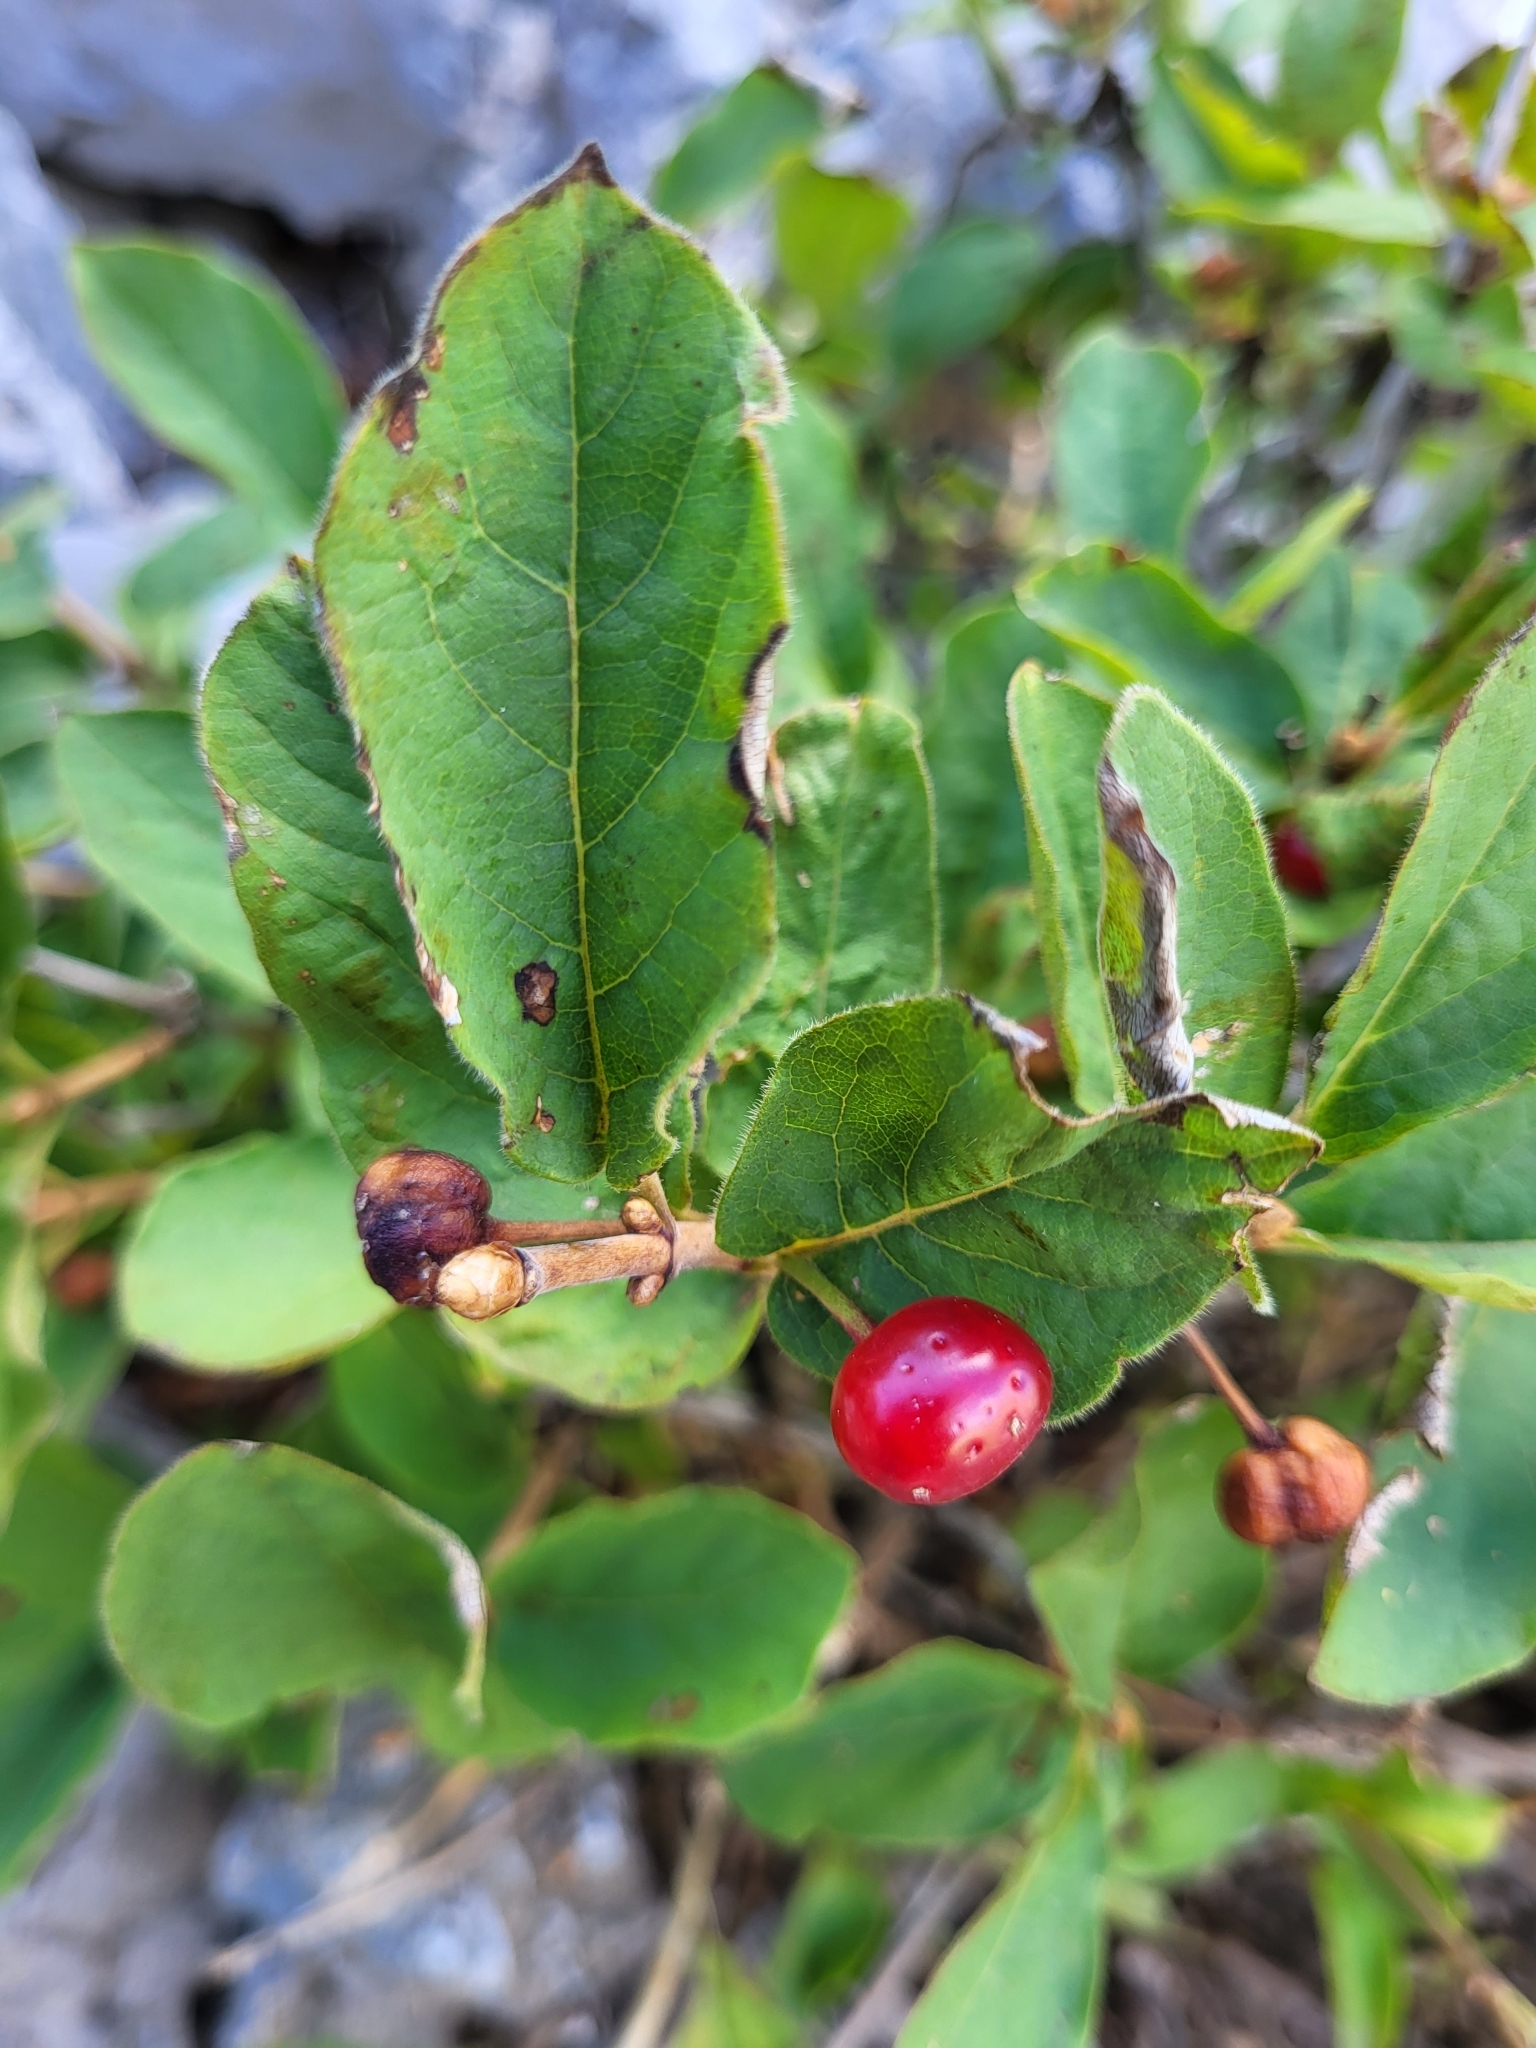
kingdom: Plantae
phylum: Tracheophyta
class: Magnoliopsida
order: Dipsacales
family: Caprifoliaceae
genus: Lonicera
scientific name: Lonicera alpigena
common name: Alpine honeysuckle
